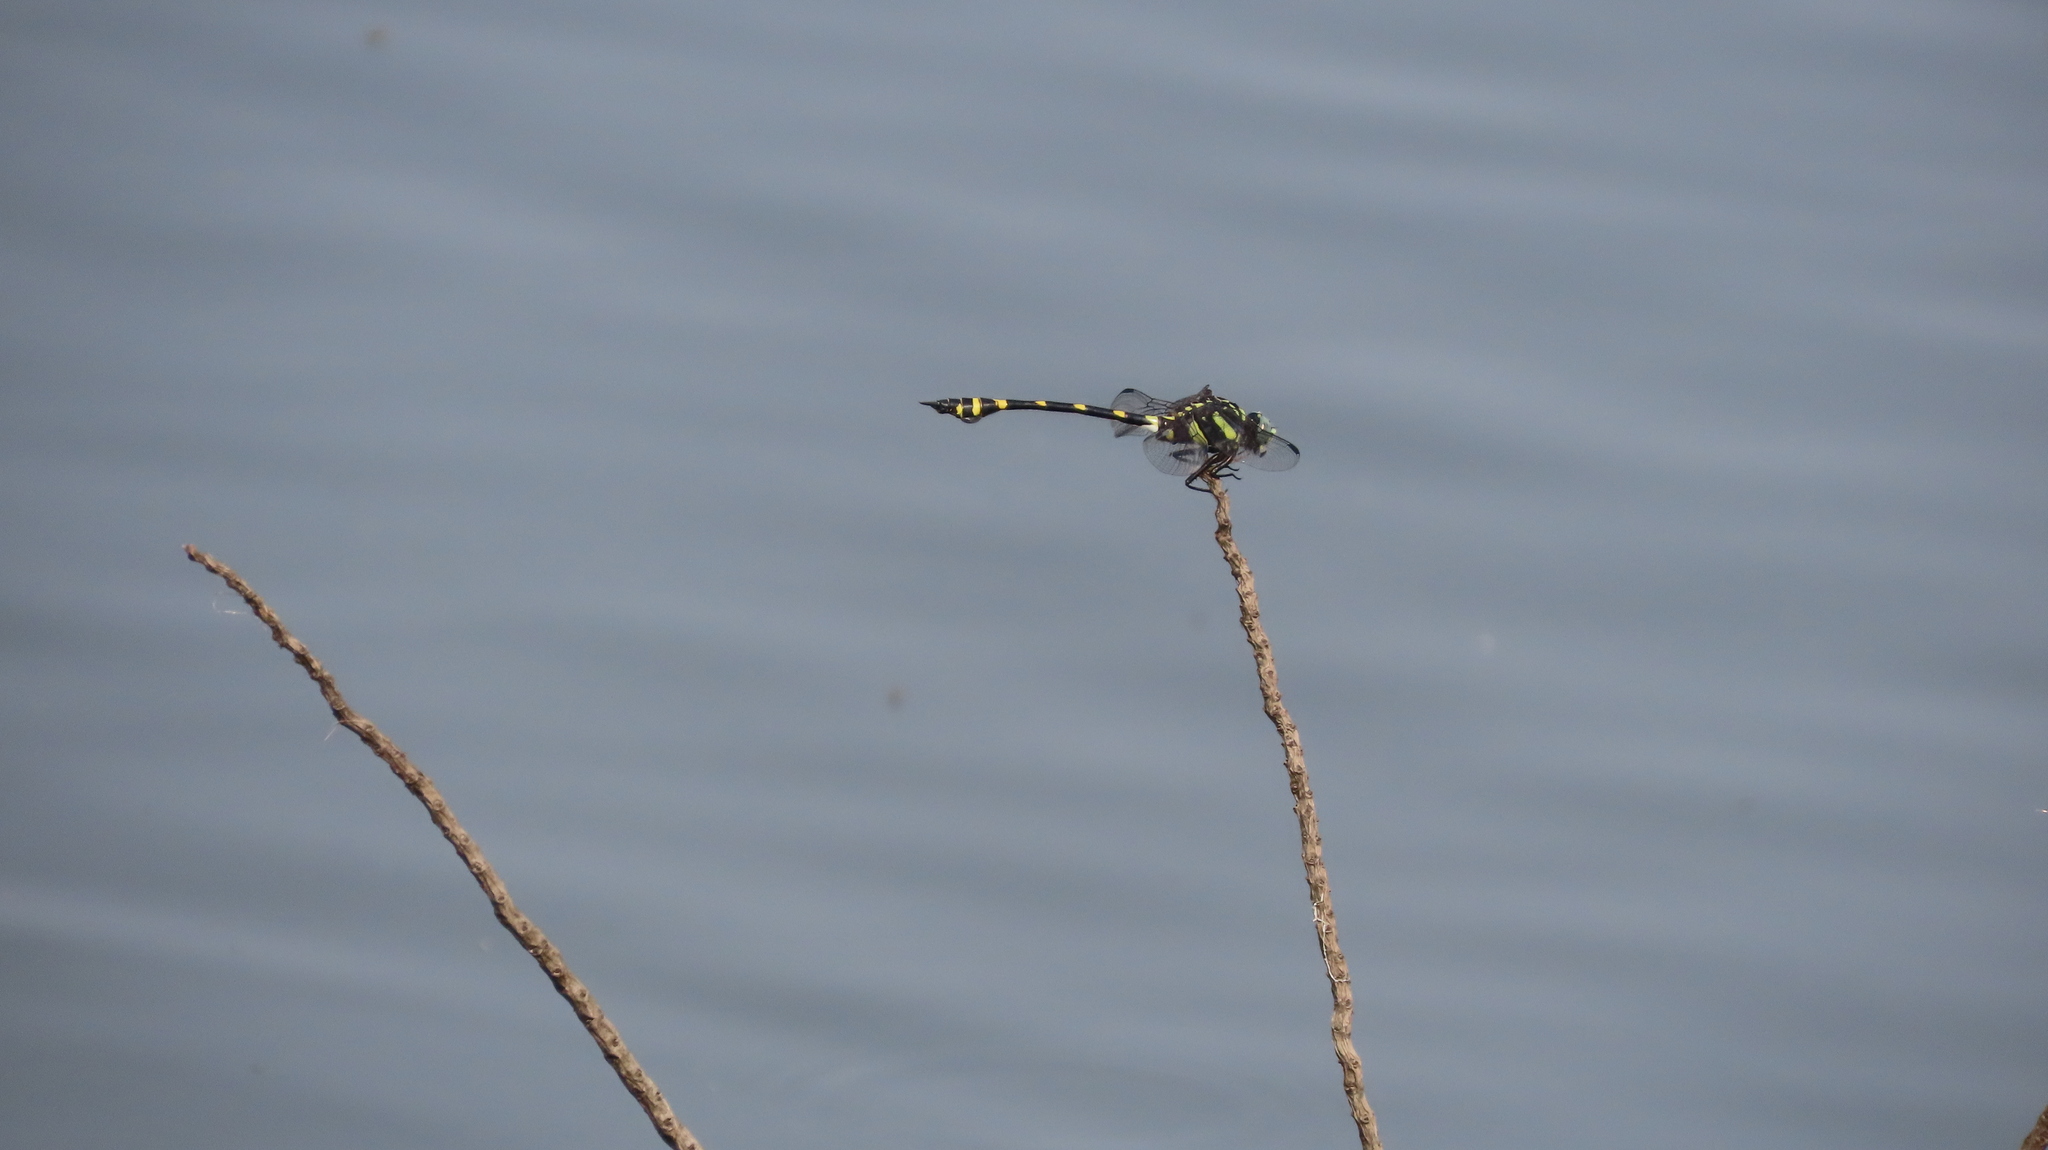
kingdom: Animalia
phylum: Arthropoda
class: Insecta
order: Odonata
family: Gomphidae
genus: Ictinogomphus
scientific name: Ictinogomphus rapax
